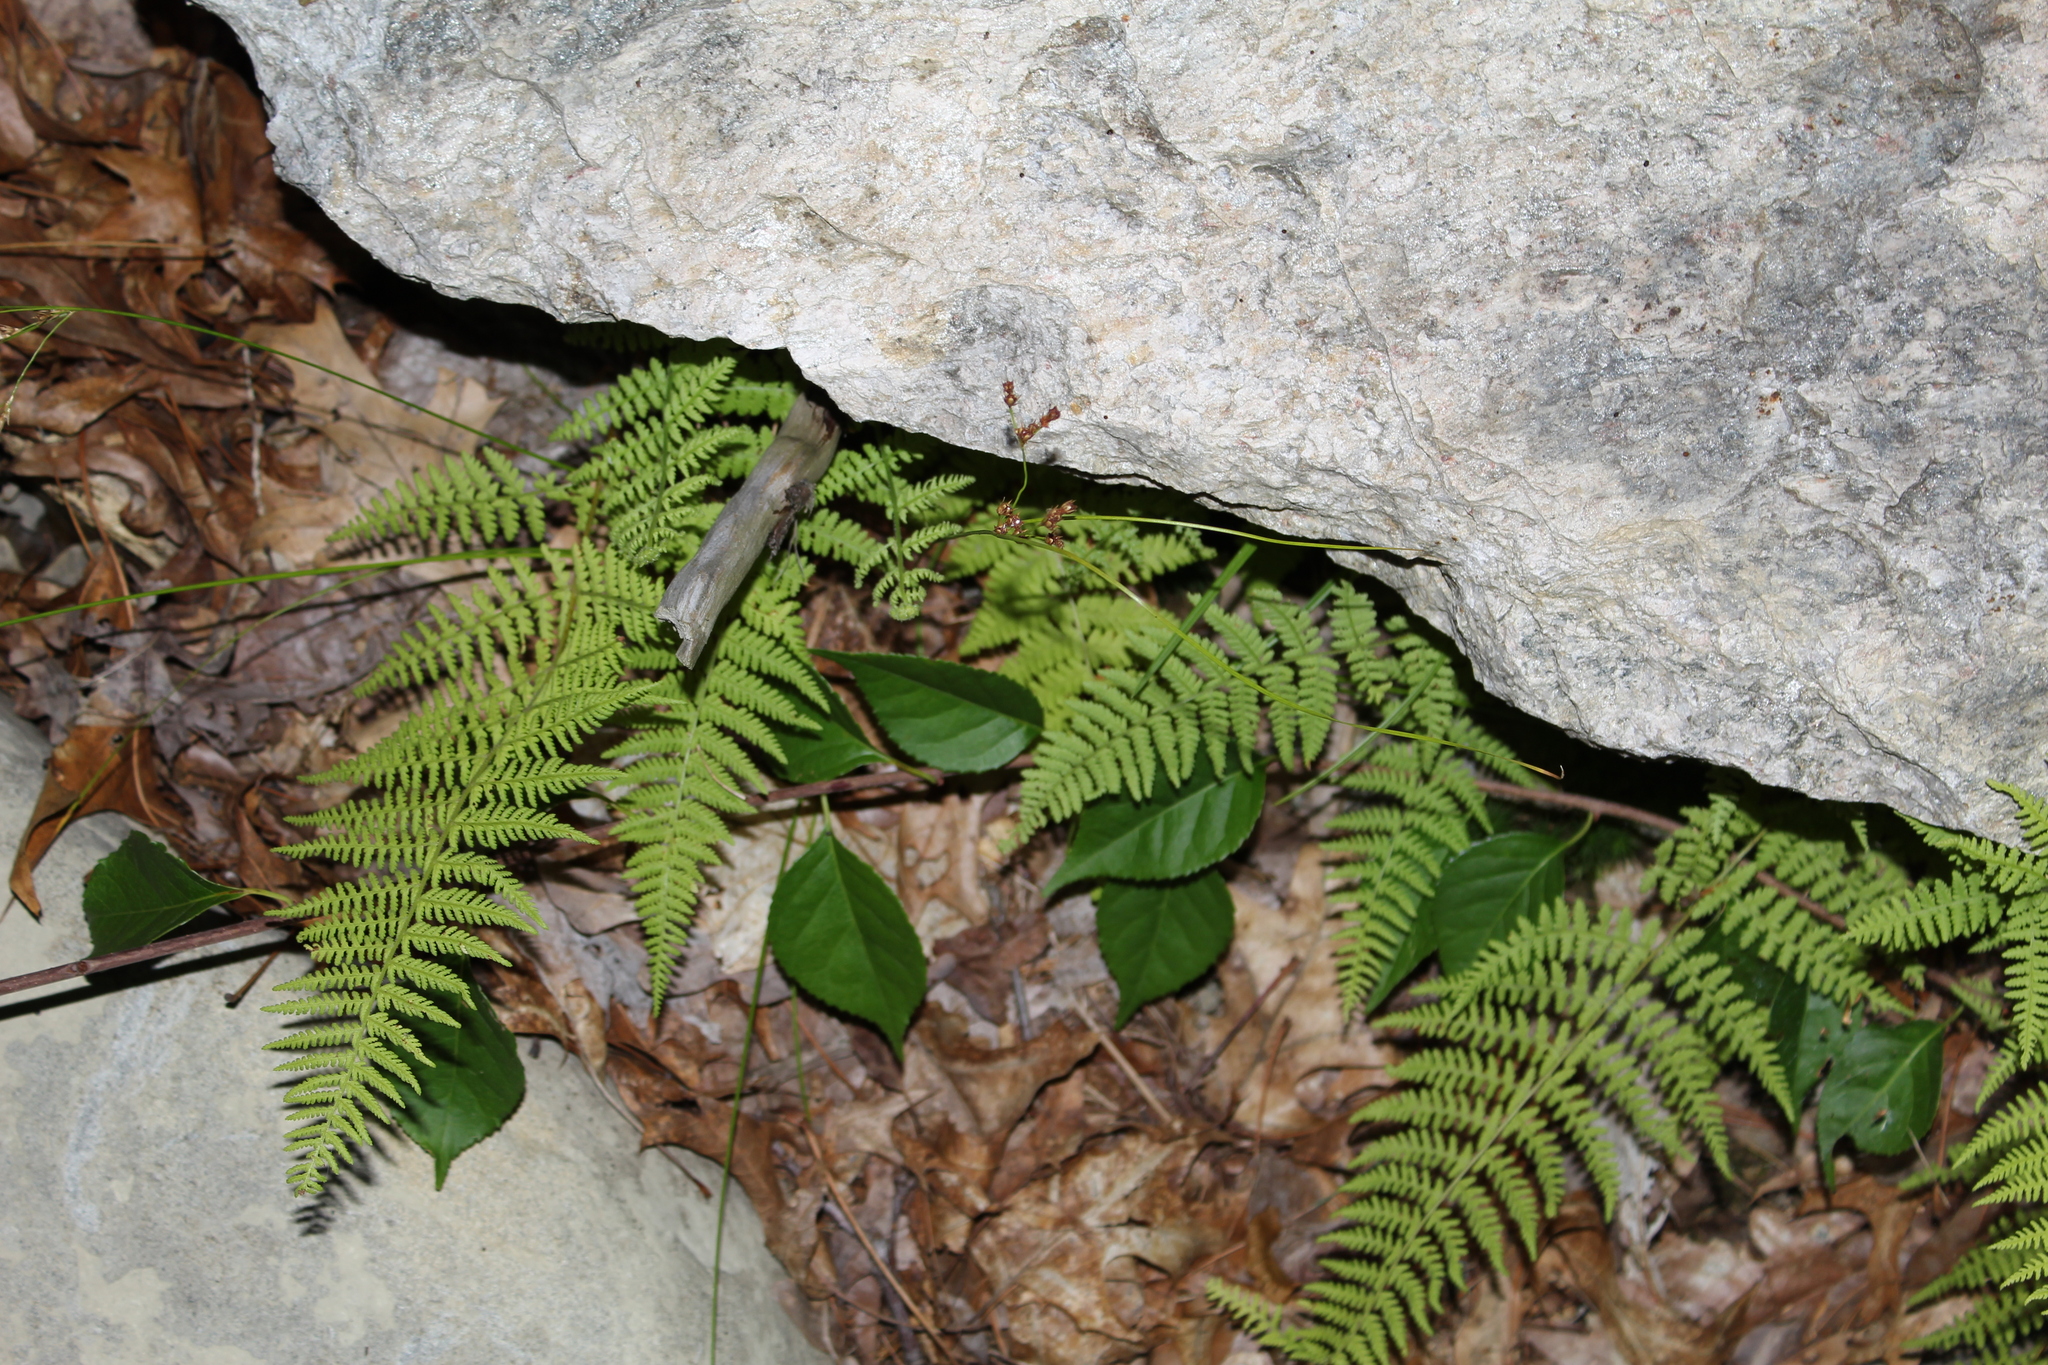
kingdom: Plantae
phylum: Tracheophyta
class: Polypodiopsida
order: Polypodiales
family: Dennstaedtiaceae
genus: Sitobolium
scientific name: Sitobolium punctilobum
